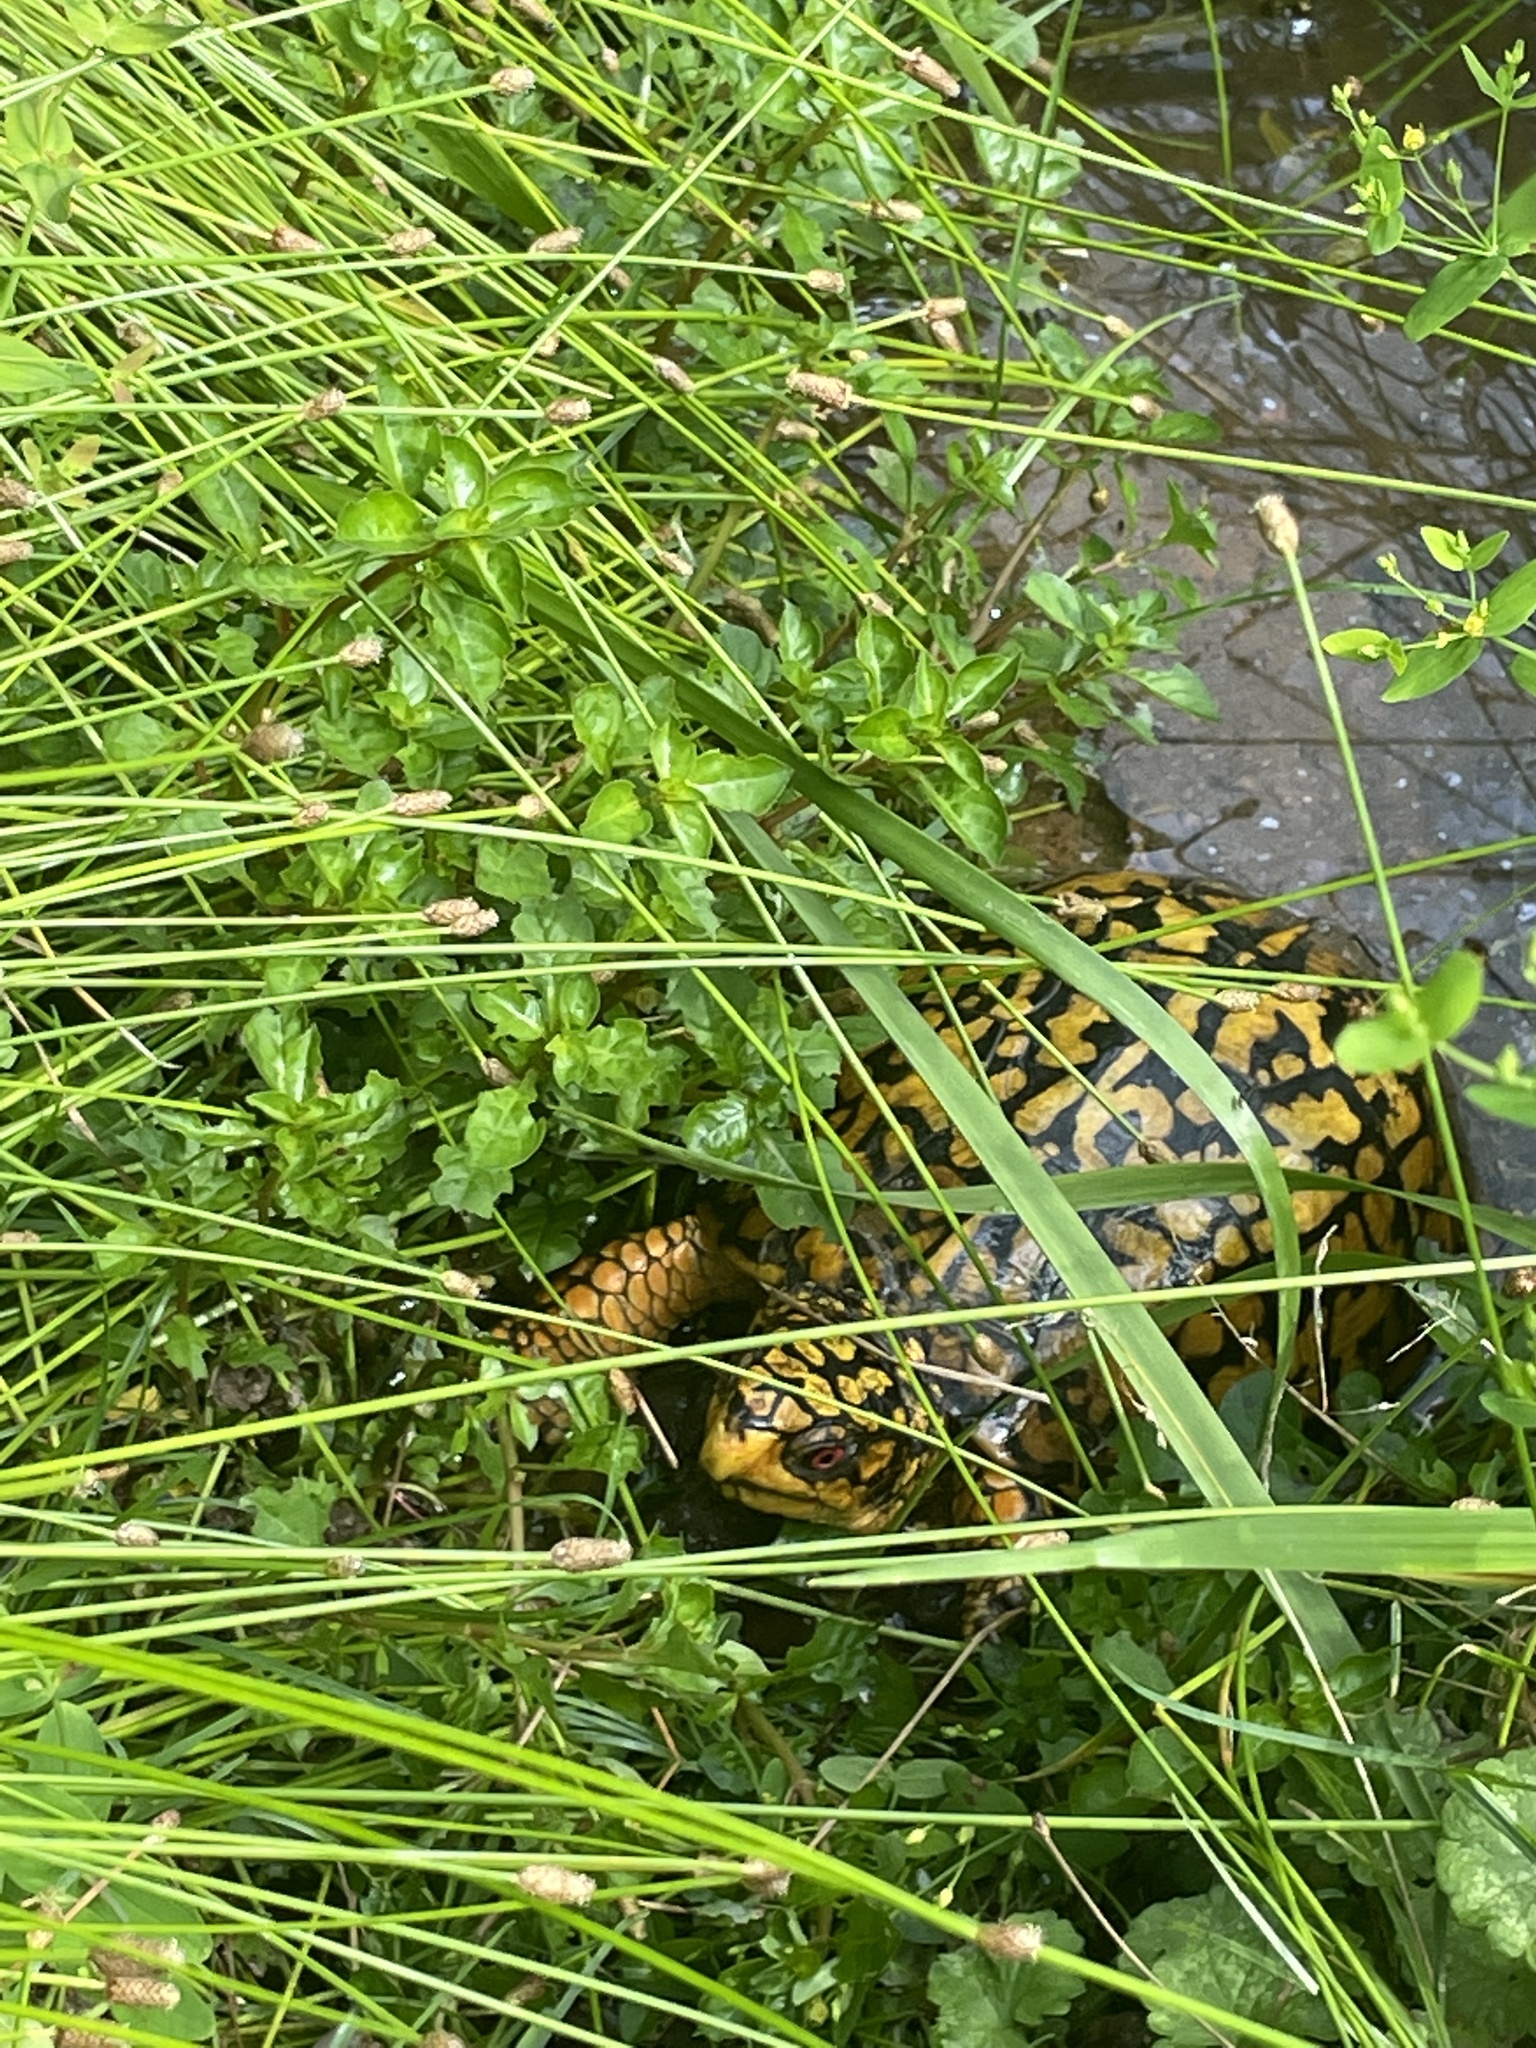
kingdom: Animalia
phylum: Chordata
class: Testudines
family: Emydidae
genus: Terrapene
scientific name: Terrapene carolina
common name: Common box turtle
